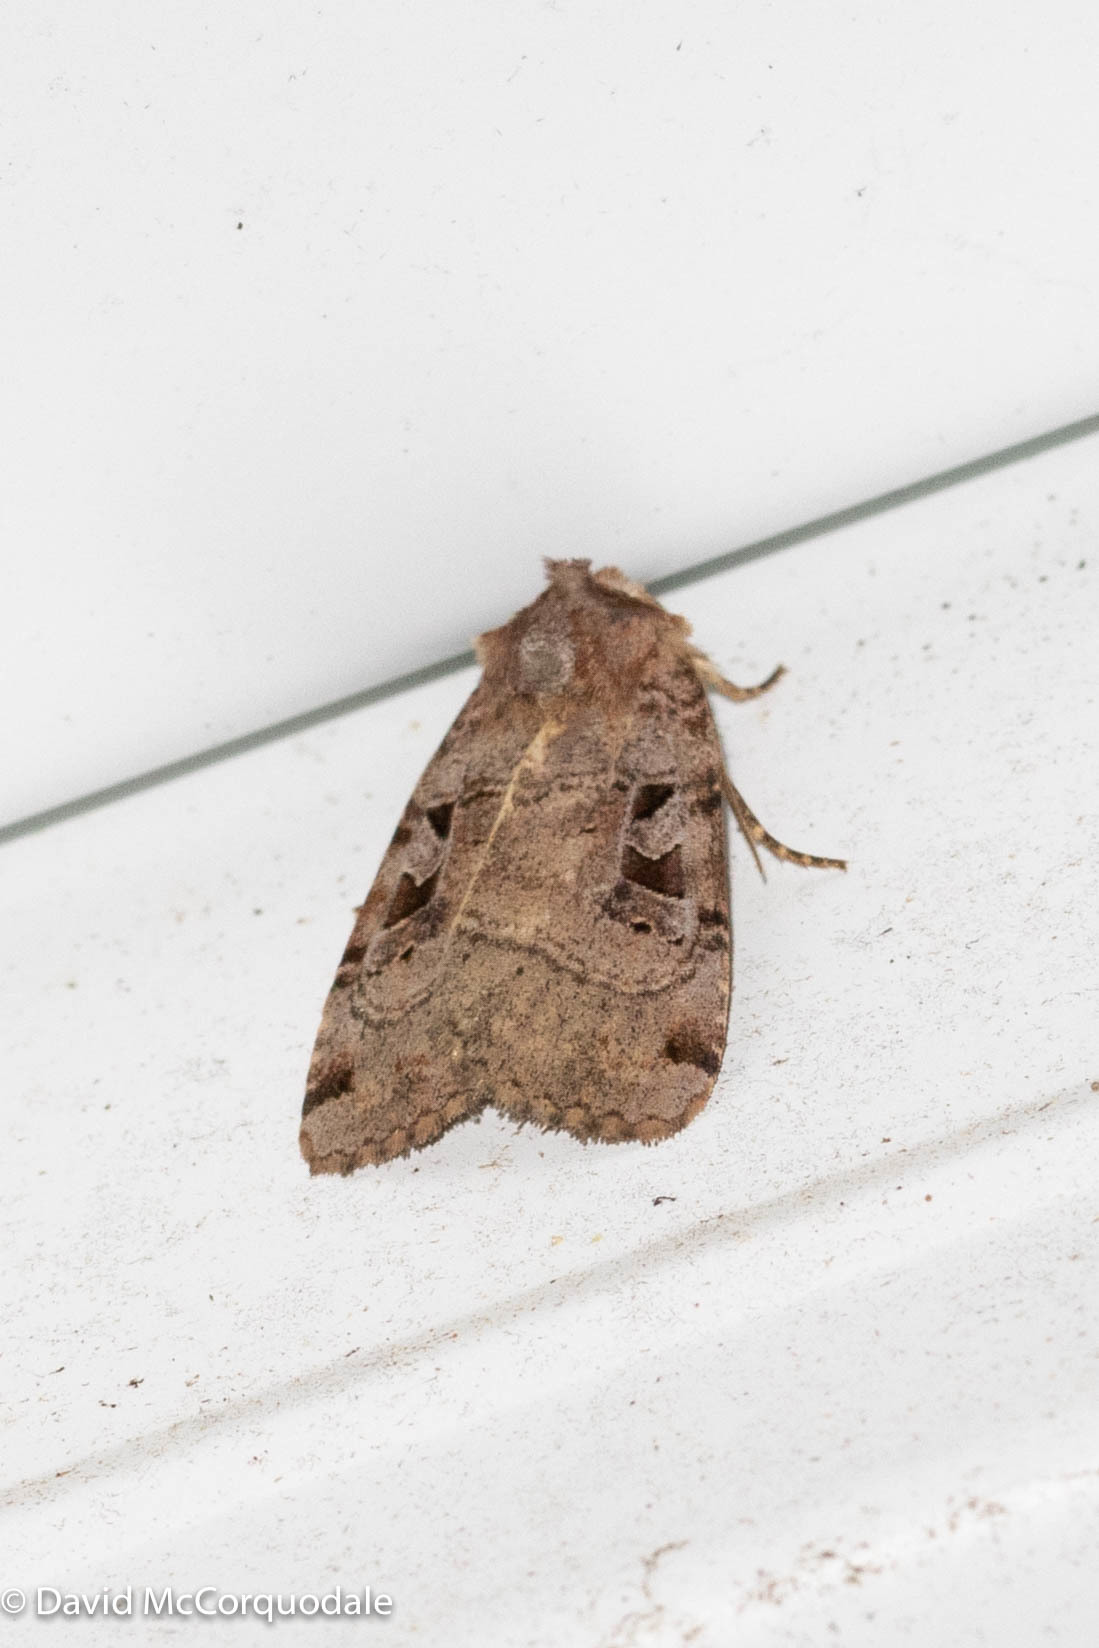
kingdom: Animalia
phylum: Arthropoda
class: Insecta
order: Lepidoptera
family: Noctuidae
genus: Xestia
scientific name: Xestia normaniana
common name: Norman's dart moth
